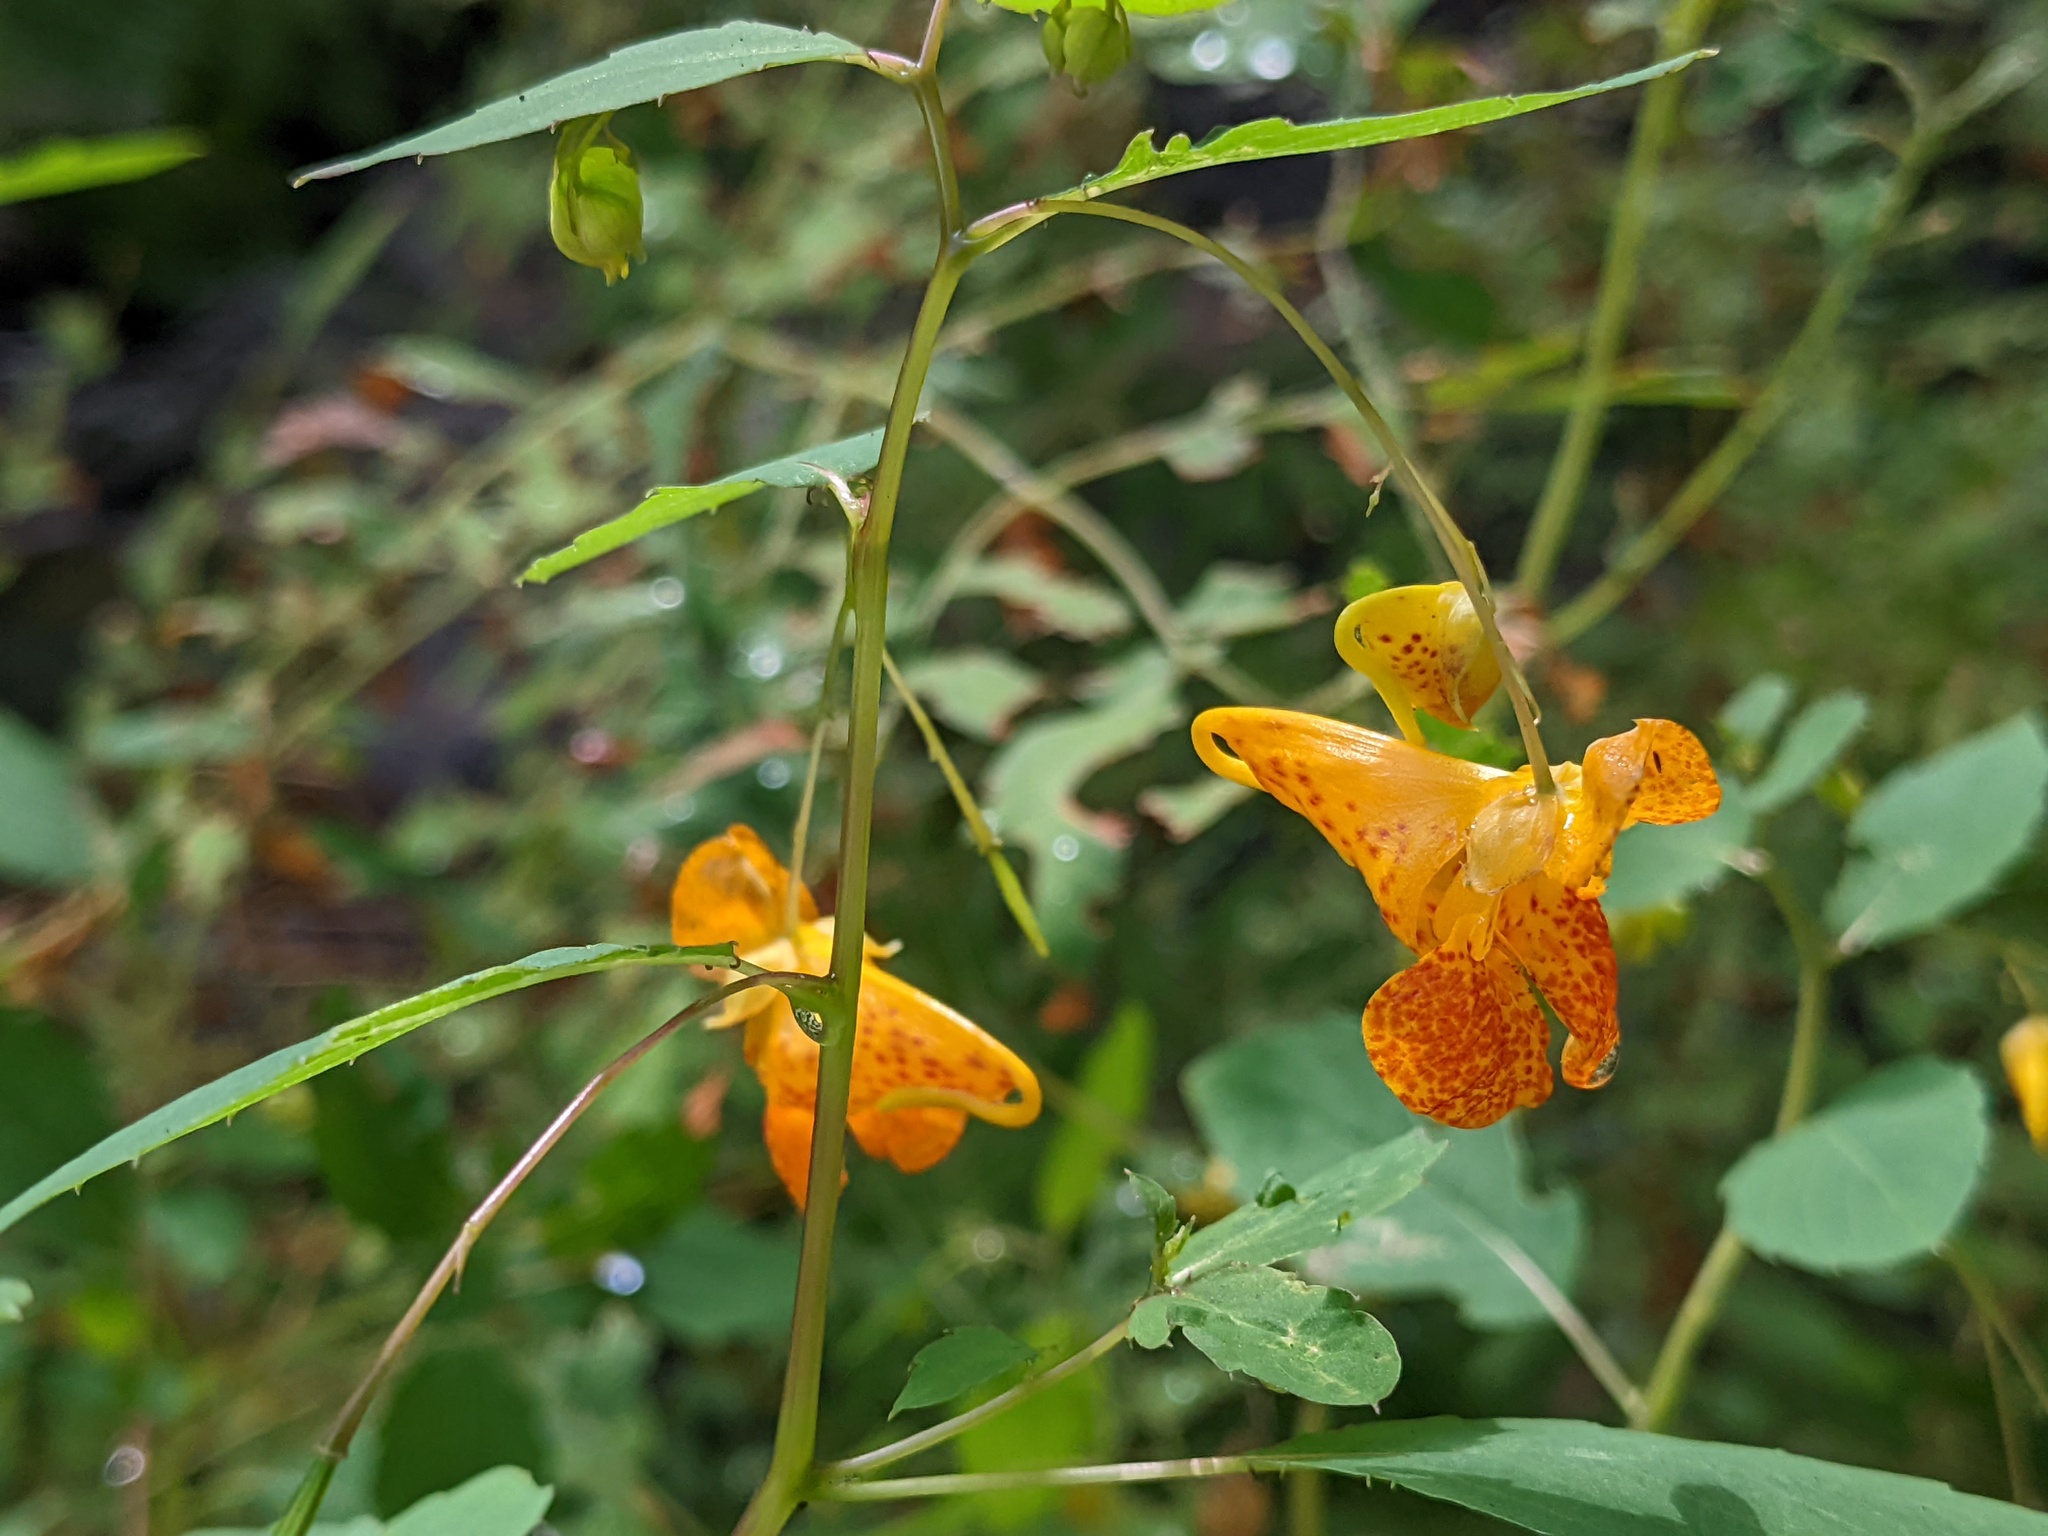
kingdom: Plantae
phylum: Tracheophyta
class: Magnoliopsida
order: Ericales
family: Balsaminaceae
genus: Impatiens
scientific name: Impatiens capensis
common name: Orange balsam
